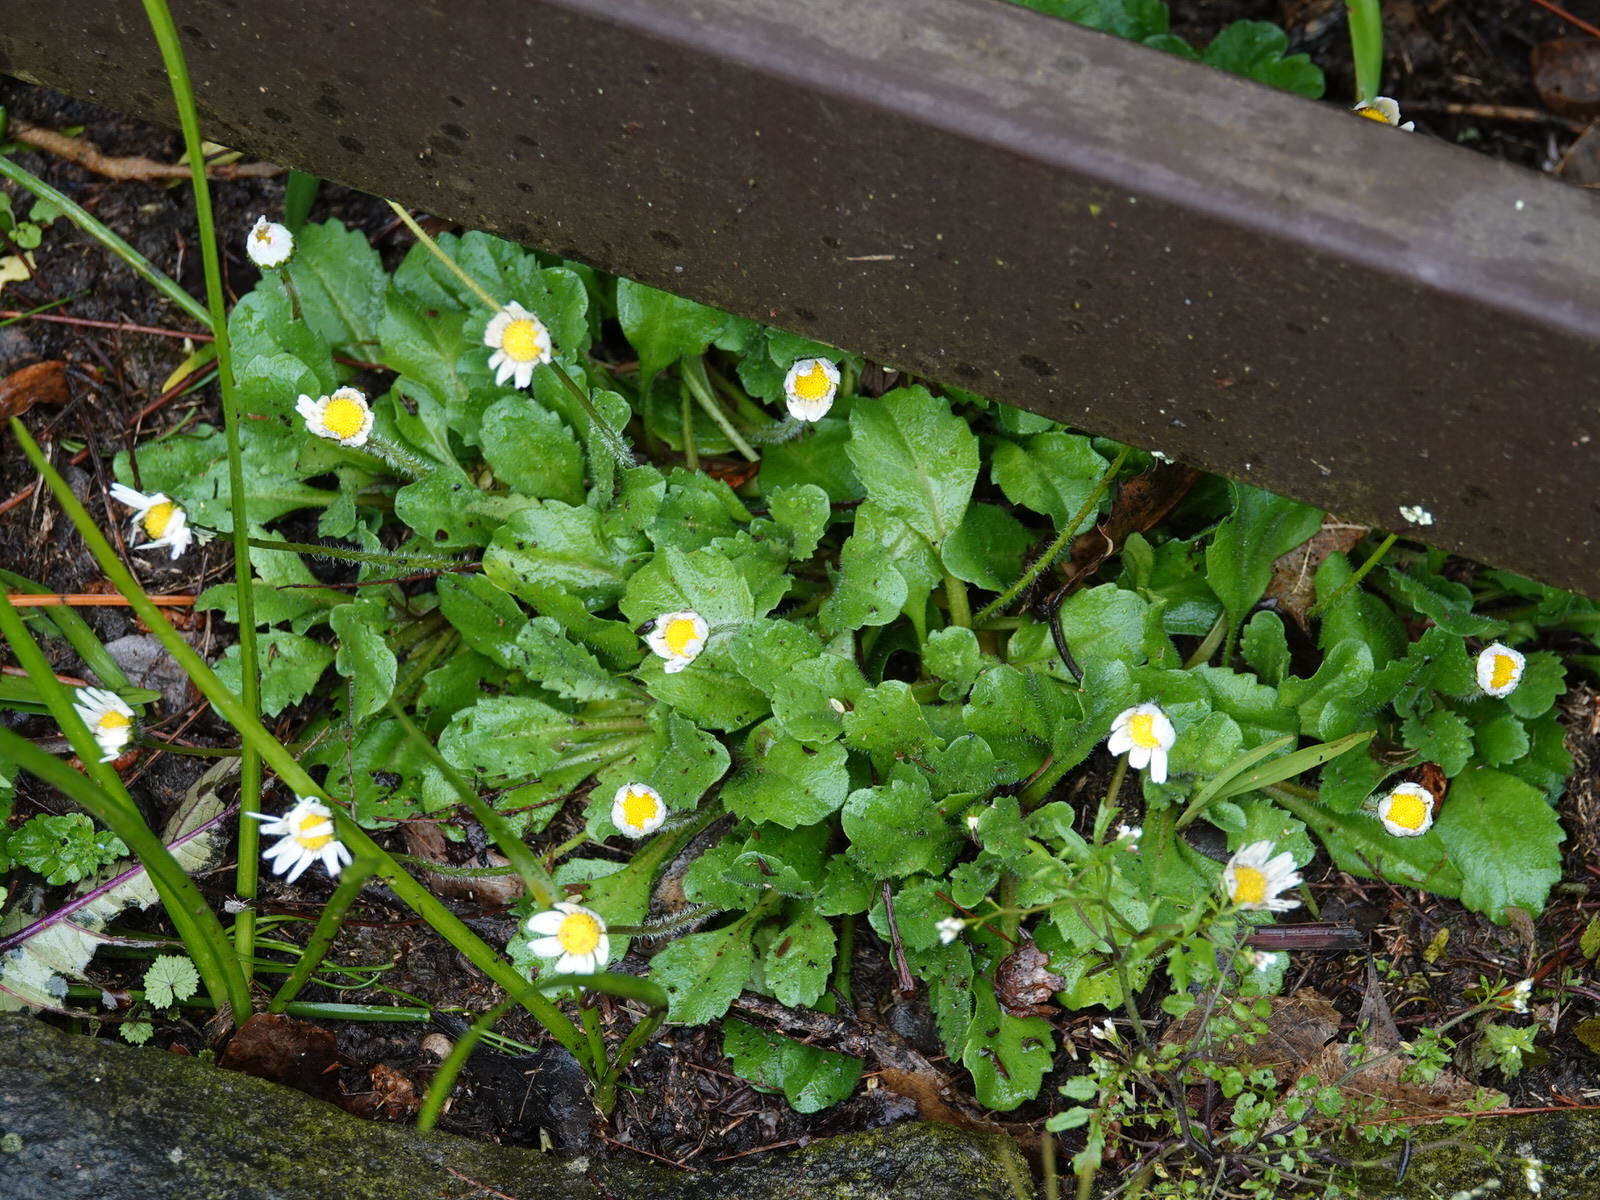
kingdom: Plantae
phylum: Tracheophyta
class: Magnoliopsida
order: Asterales
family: Asteraceae
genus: Bellis
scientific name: Bellis perennis
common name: Lawndaisy
